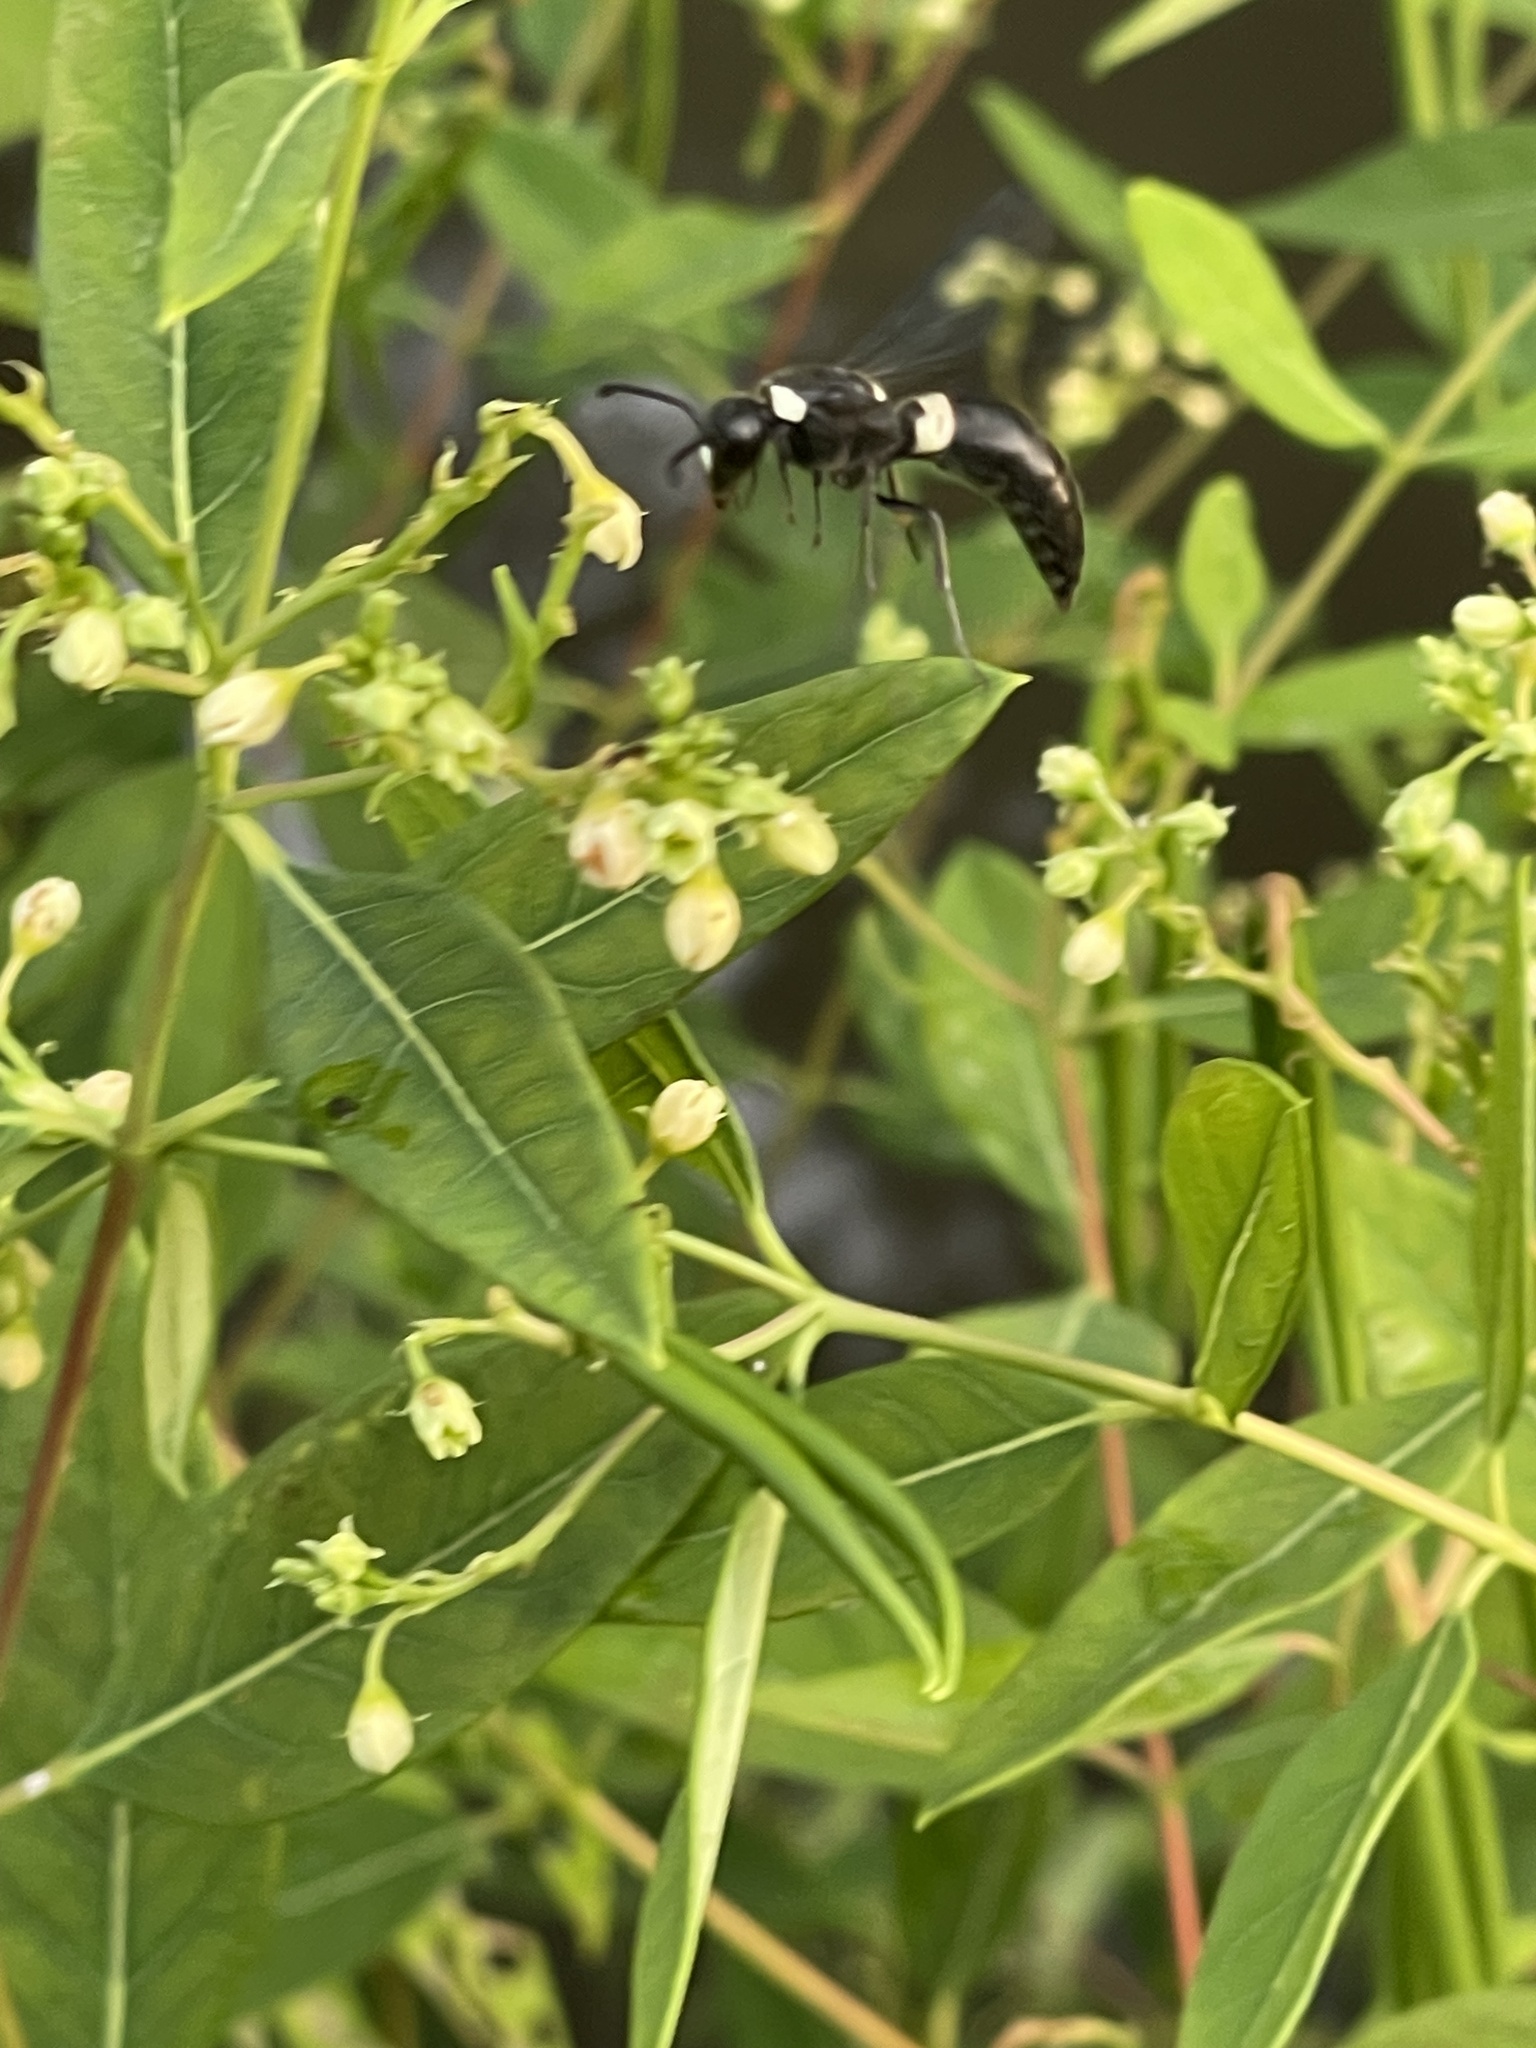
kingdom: Animalia
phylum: Arthropoda
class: Insecta
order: Hymenoptera
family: Eumenidae
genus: Monobia
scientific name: Monobia quadridens
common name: Four-toothed mason wasp
